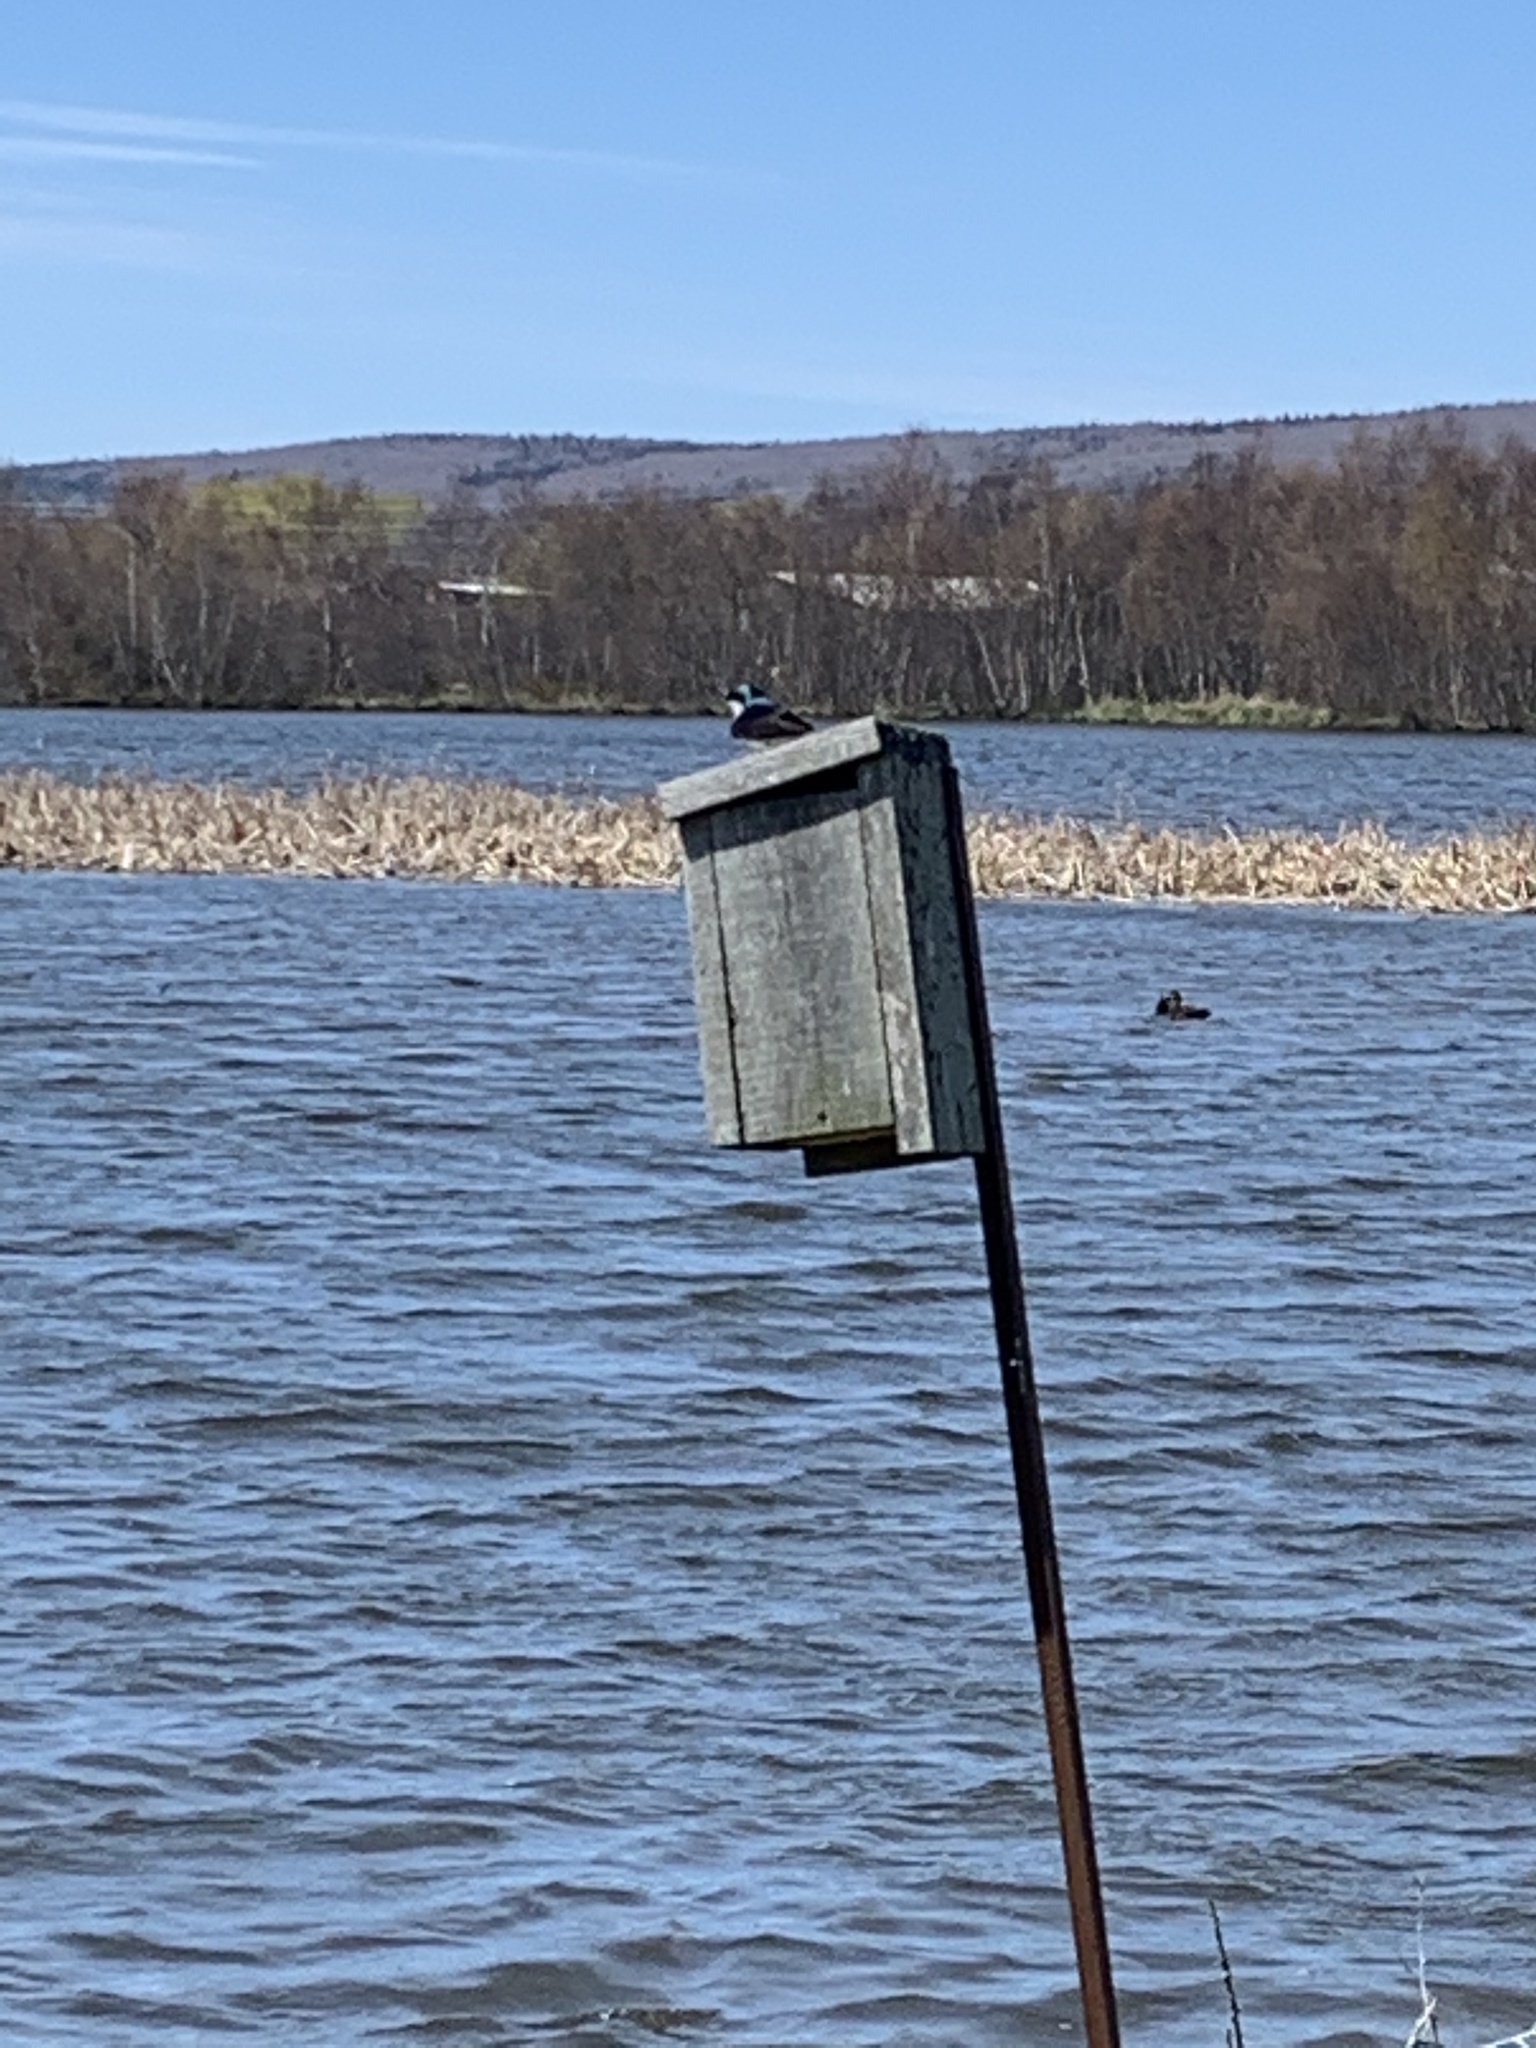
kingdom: Animalia
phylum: Chordata
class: Aves
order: Passeriformes
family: Hirundinidae
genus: Tachycineta
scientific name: Tachycineta bicolor
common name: Tree swallow
